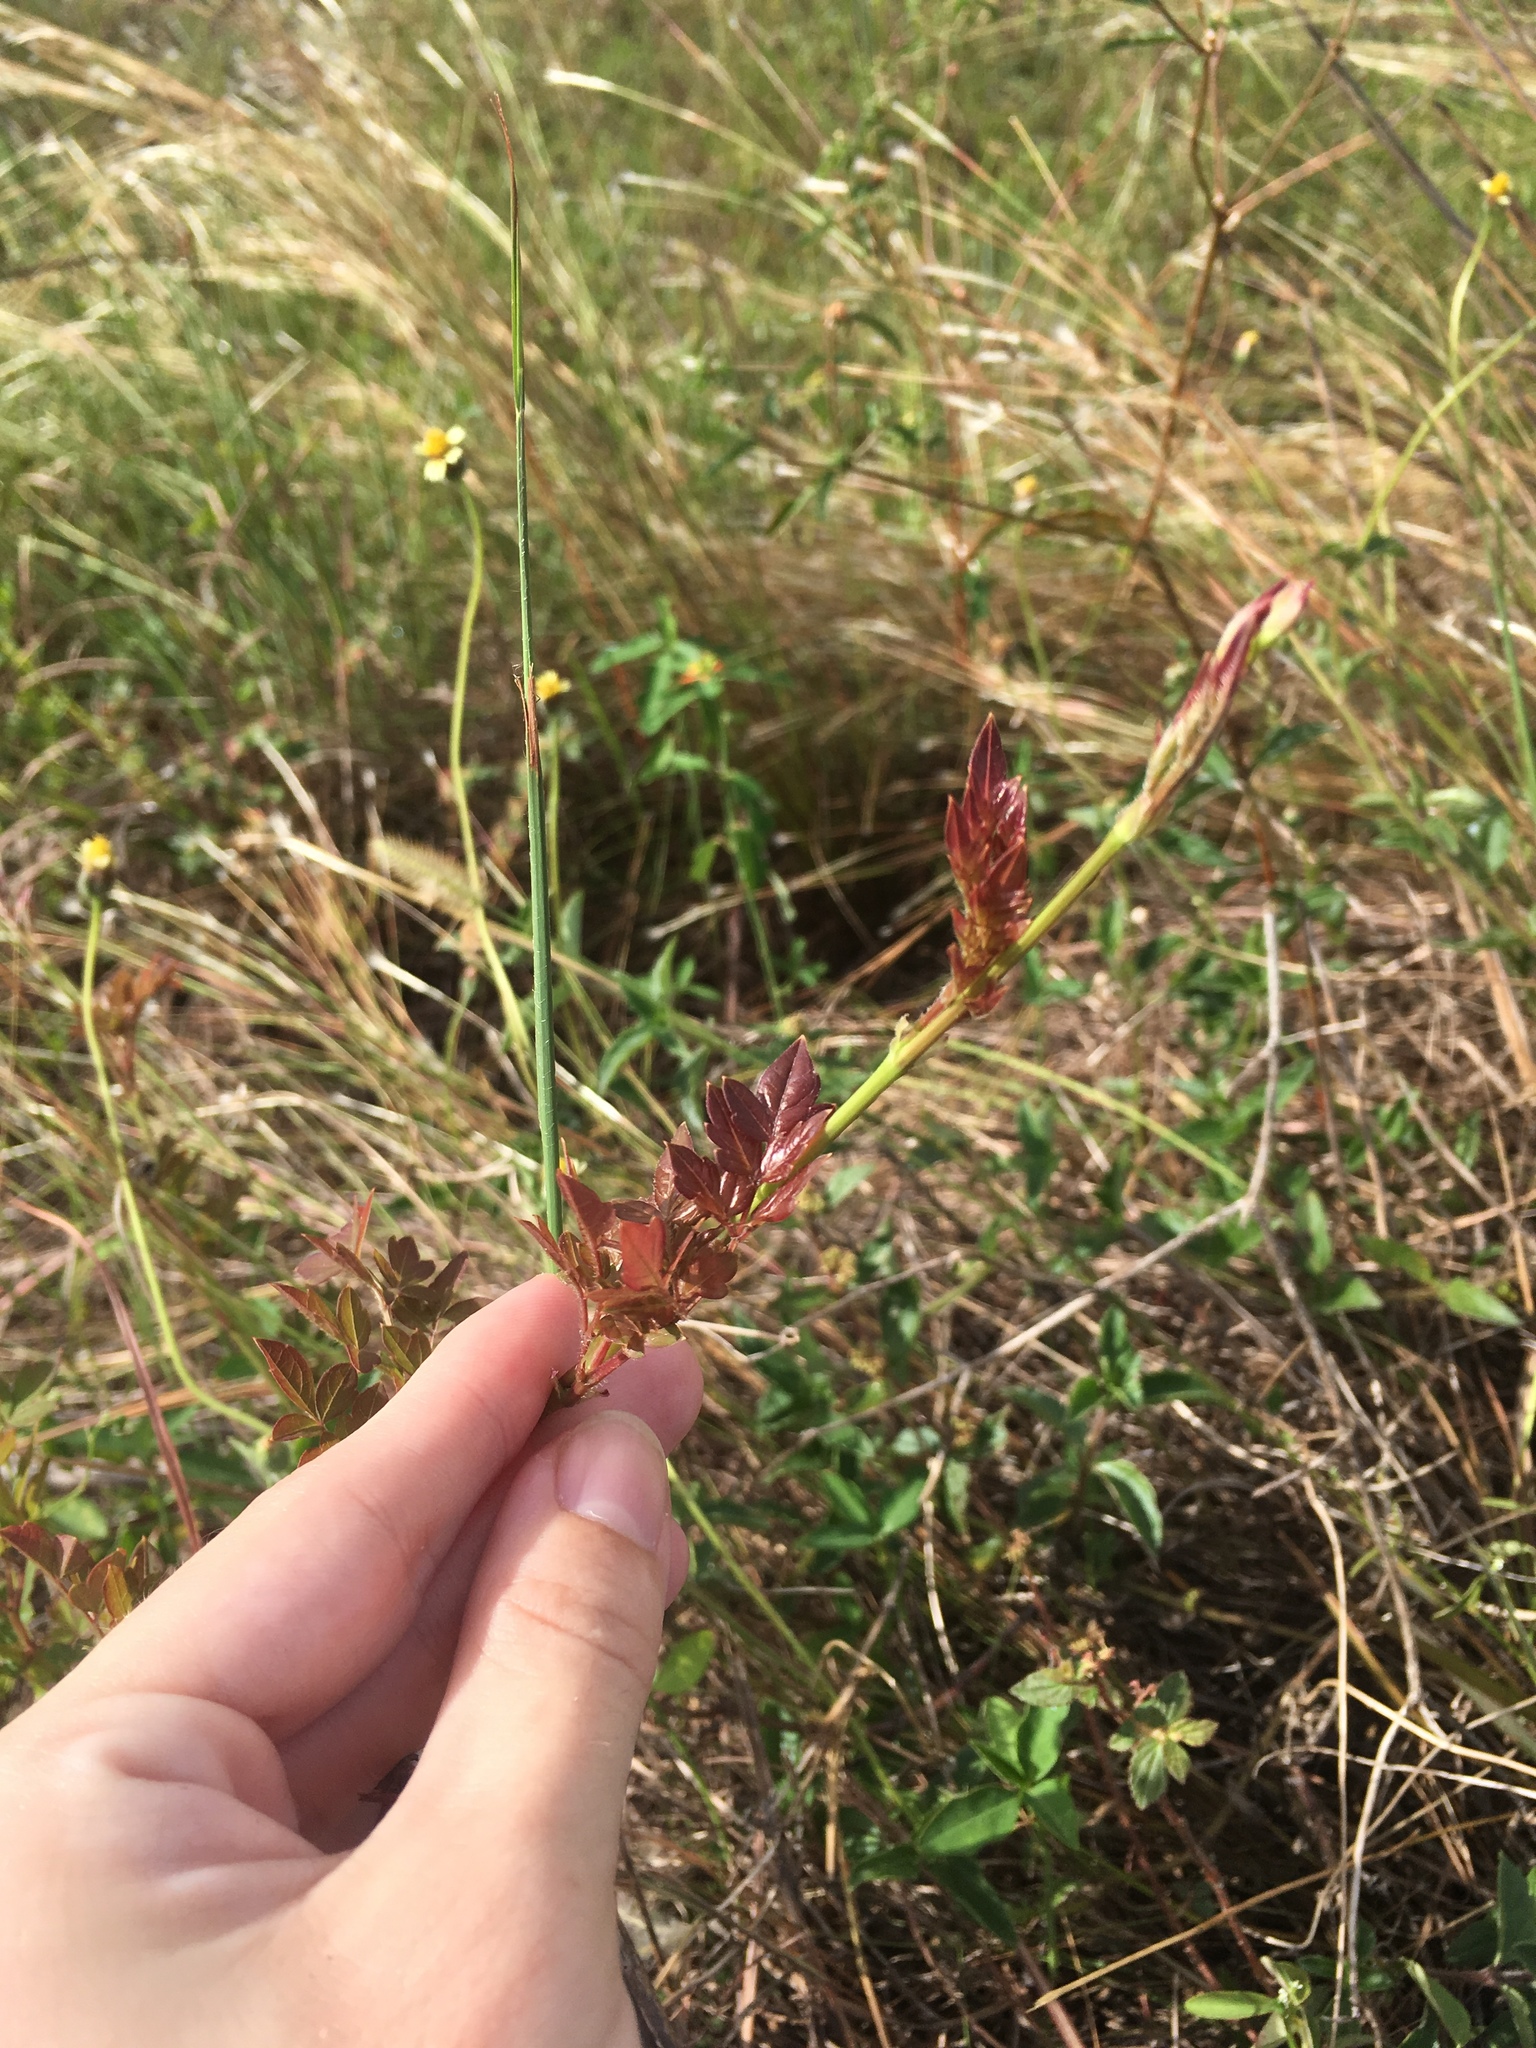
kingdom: Plantae
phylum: Tracheophyta
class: Magnoliopsida
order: Vitales
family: Vitaceae
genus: Nekemias
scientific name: Nekemias arborea
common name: Peppervine
